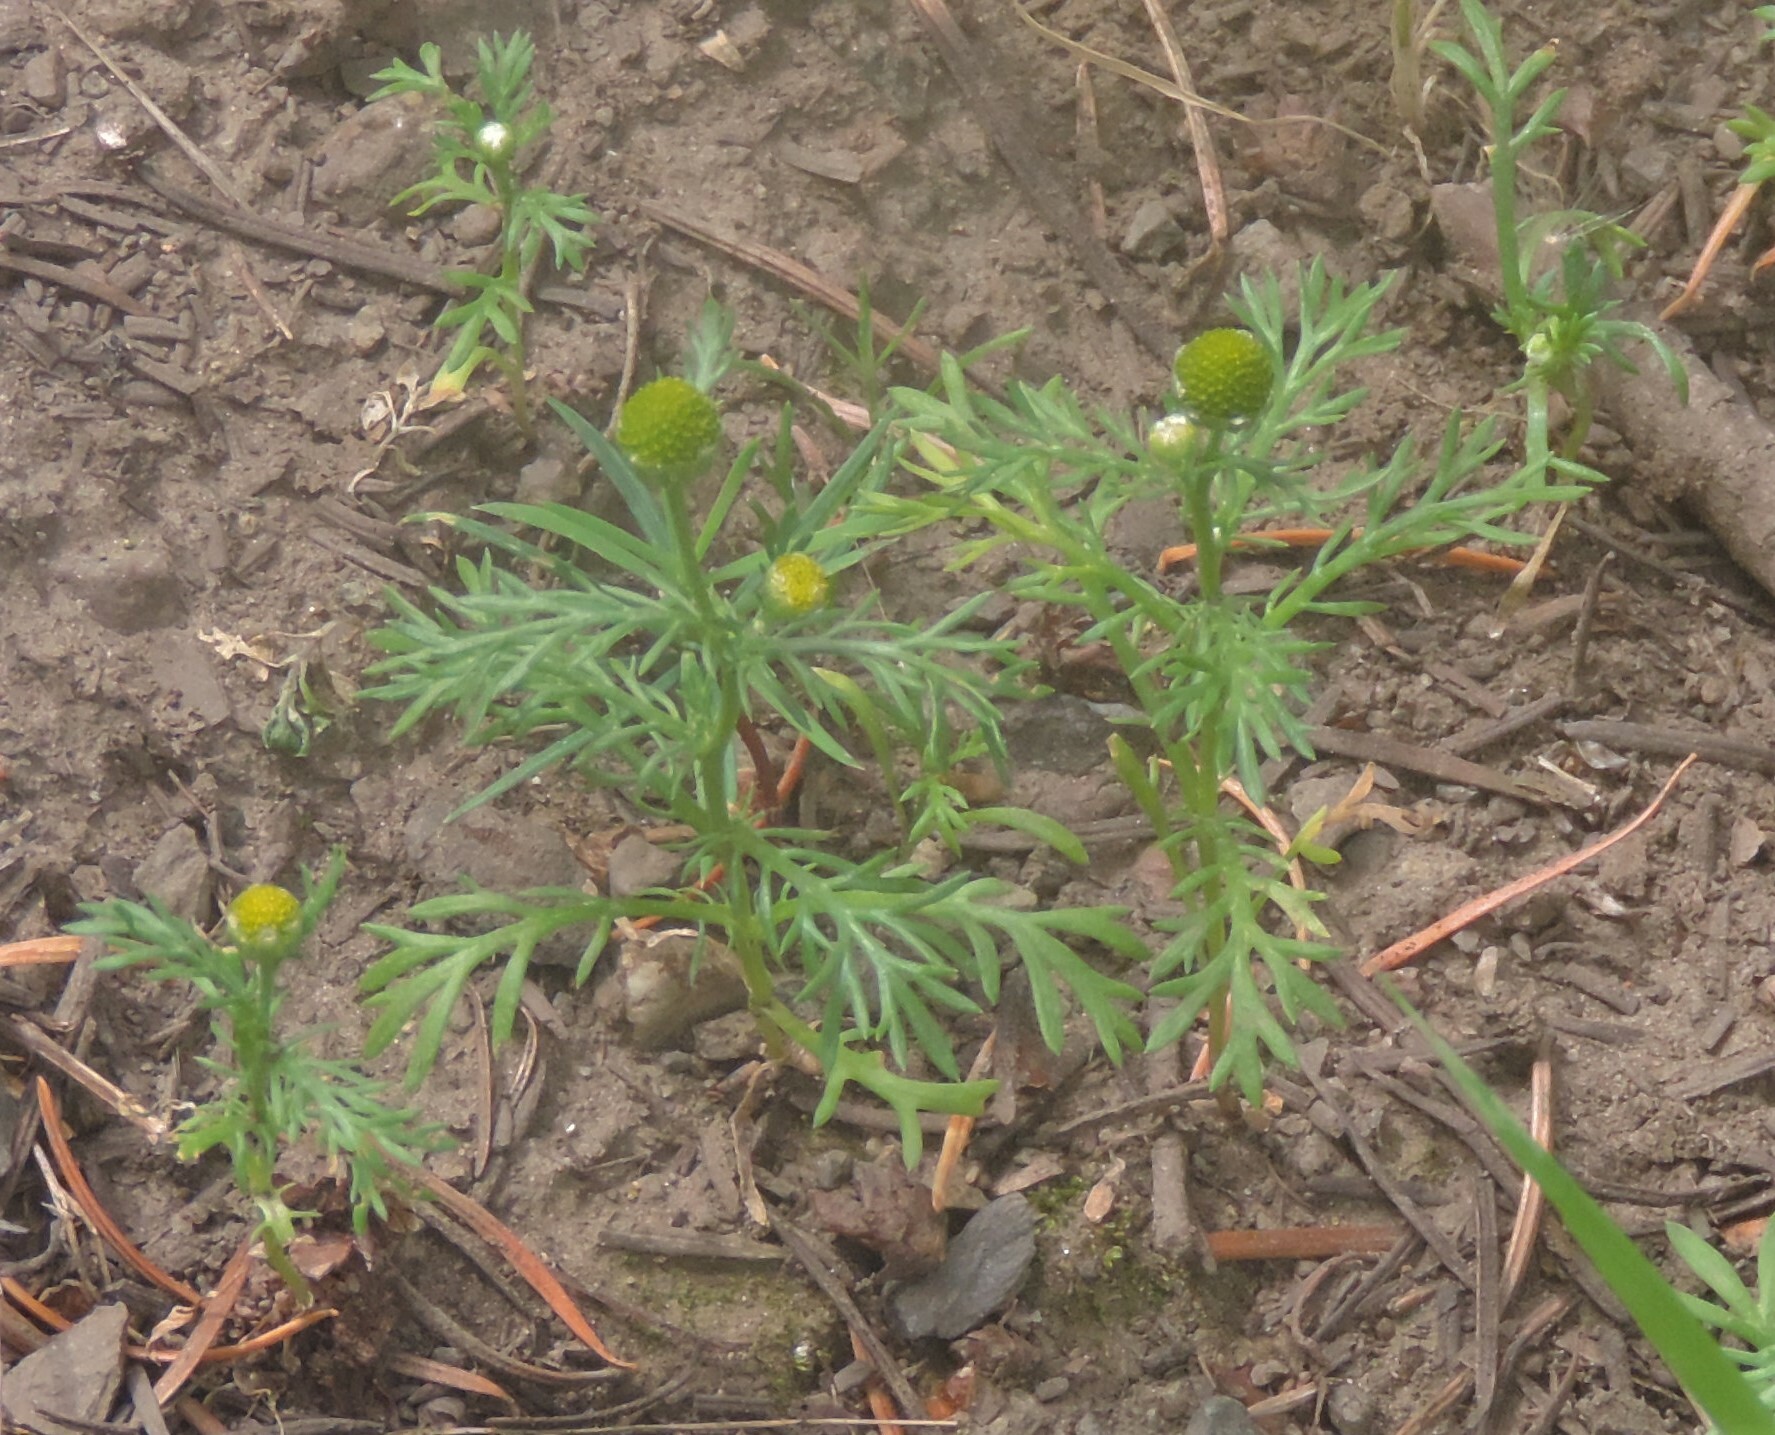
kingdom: Plantae
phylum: Tracheophyta
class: Magnoliopsida
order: Asterales
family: Asteraceae
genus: Matricaria
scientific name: Matricaria discoidea
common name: Disc mayweed
